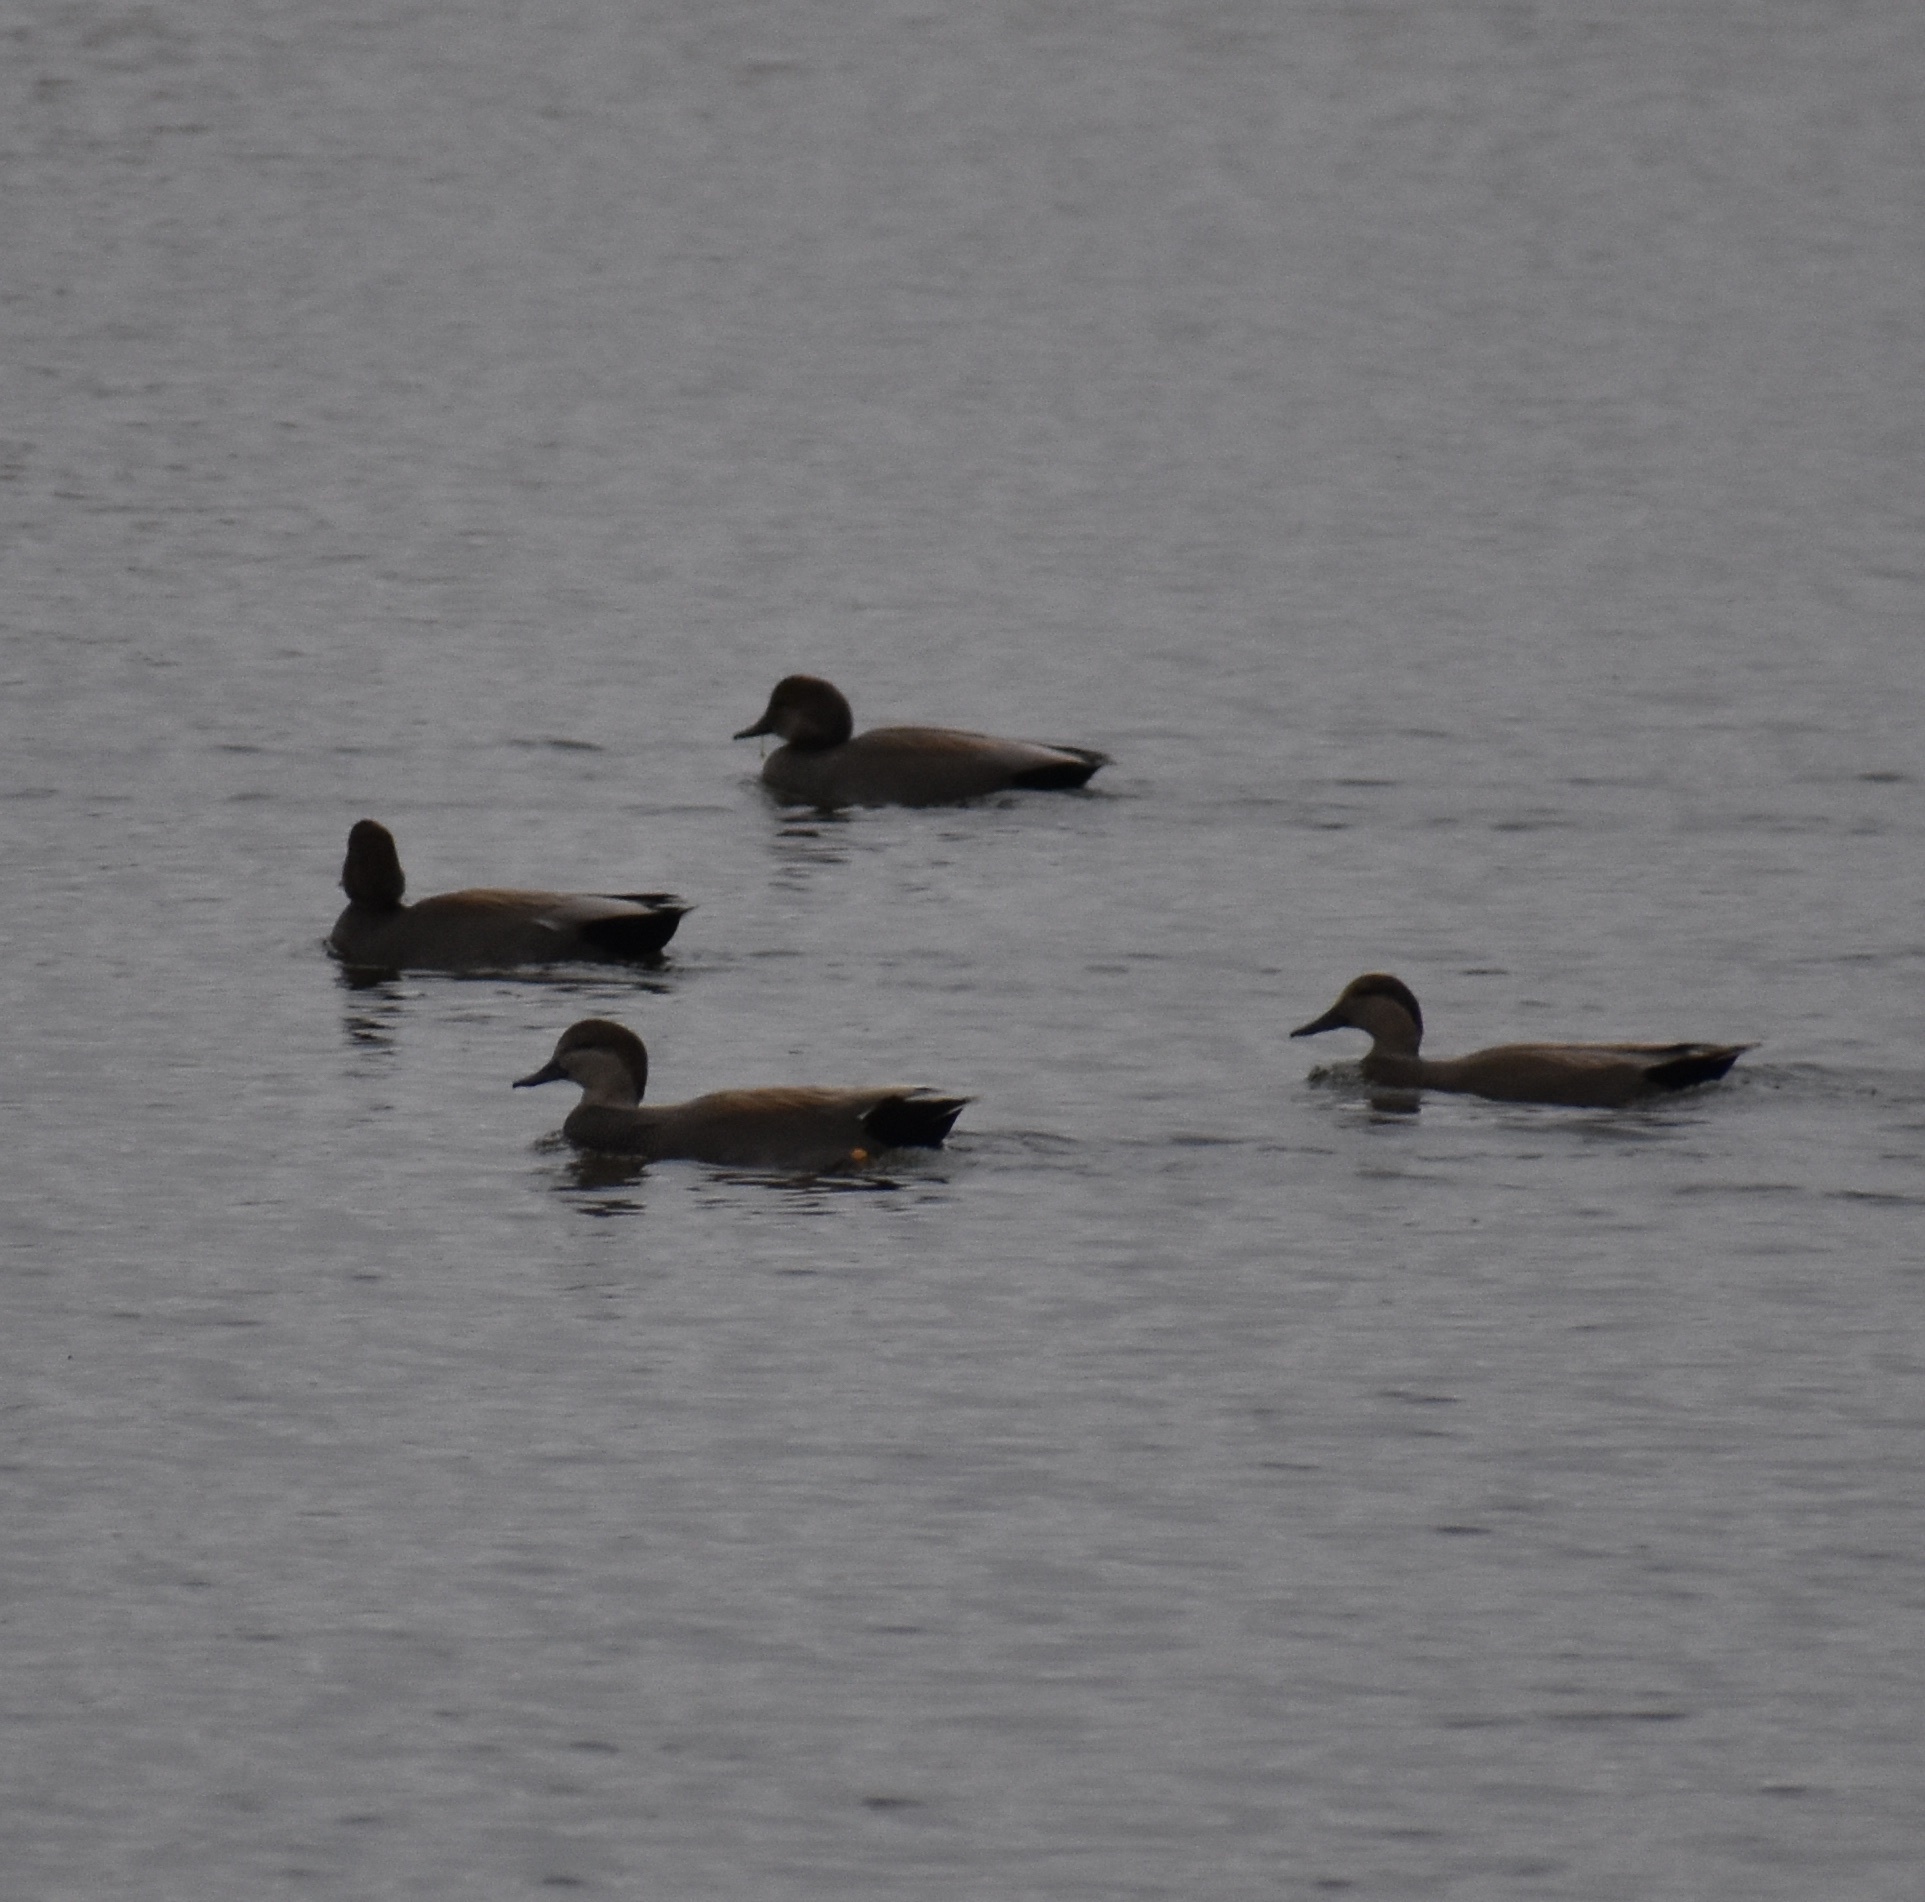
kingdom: Animalia
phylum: Chordata
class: Aves
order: Anseriformes
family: Anatidae
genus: Mareca
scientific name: Mareca strepera
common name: Gadwall
